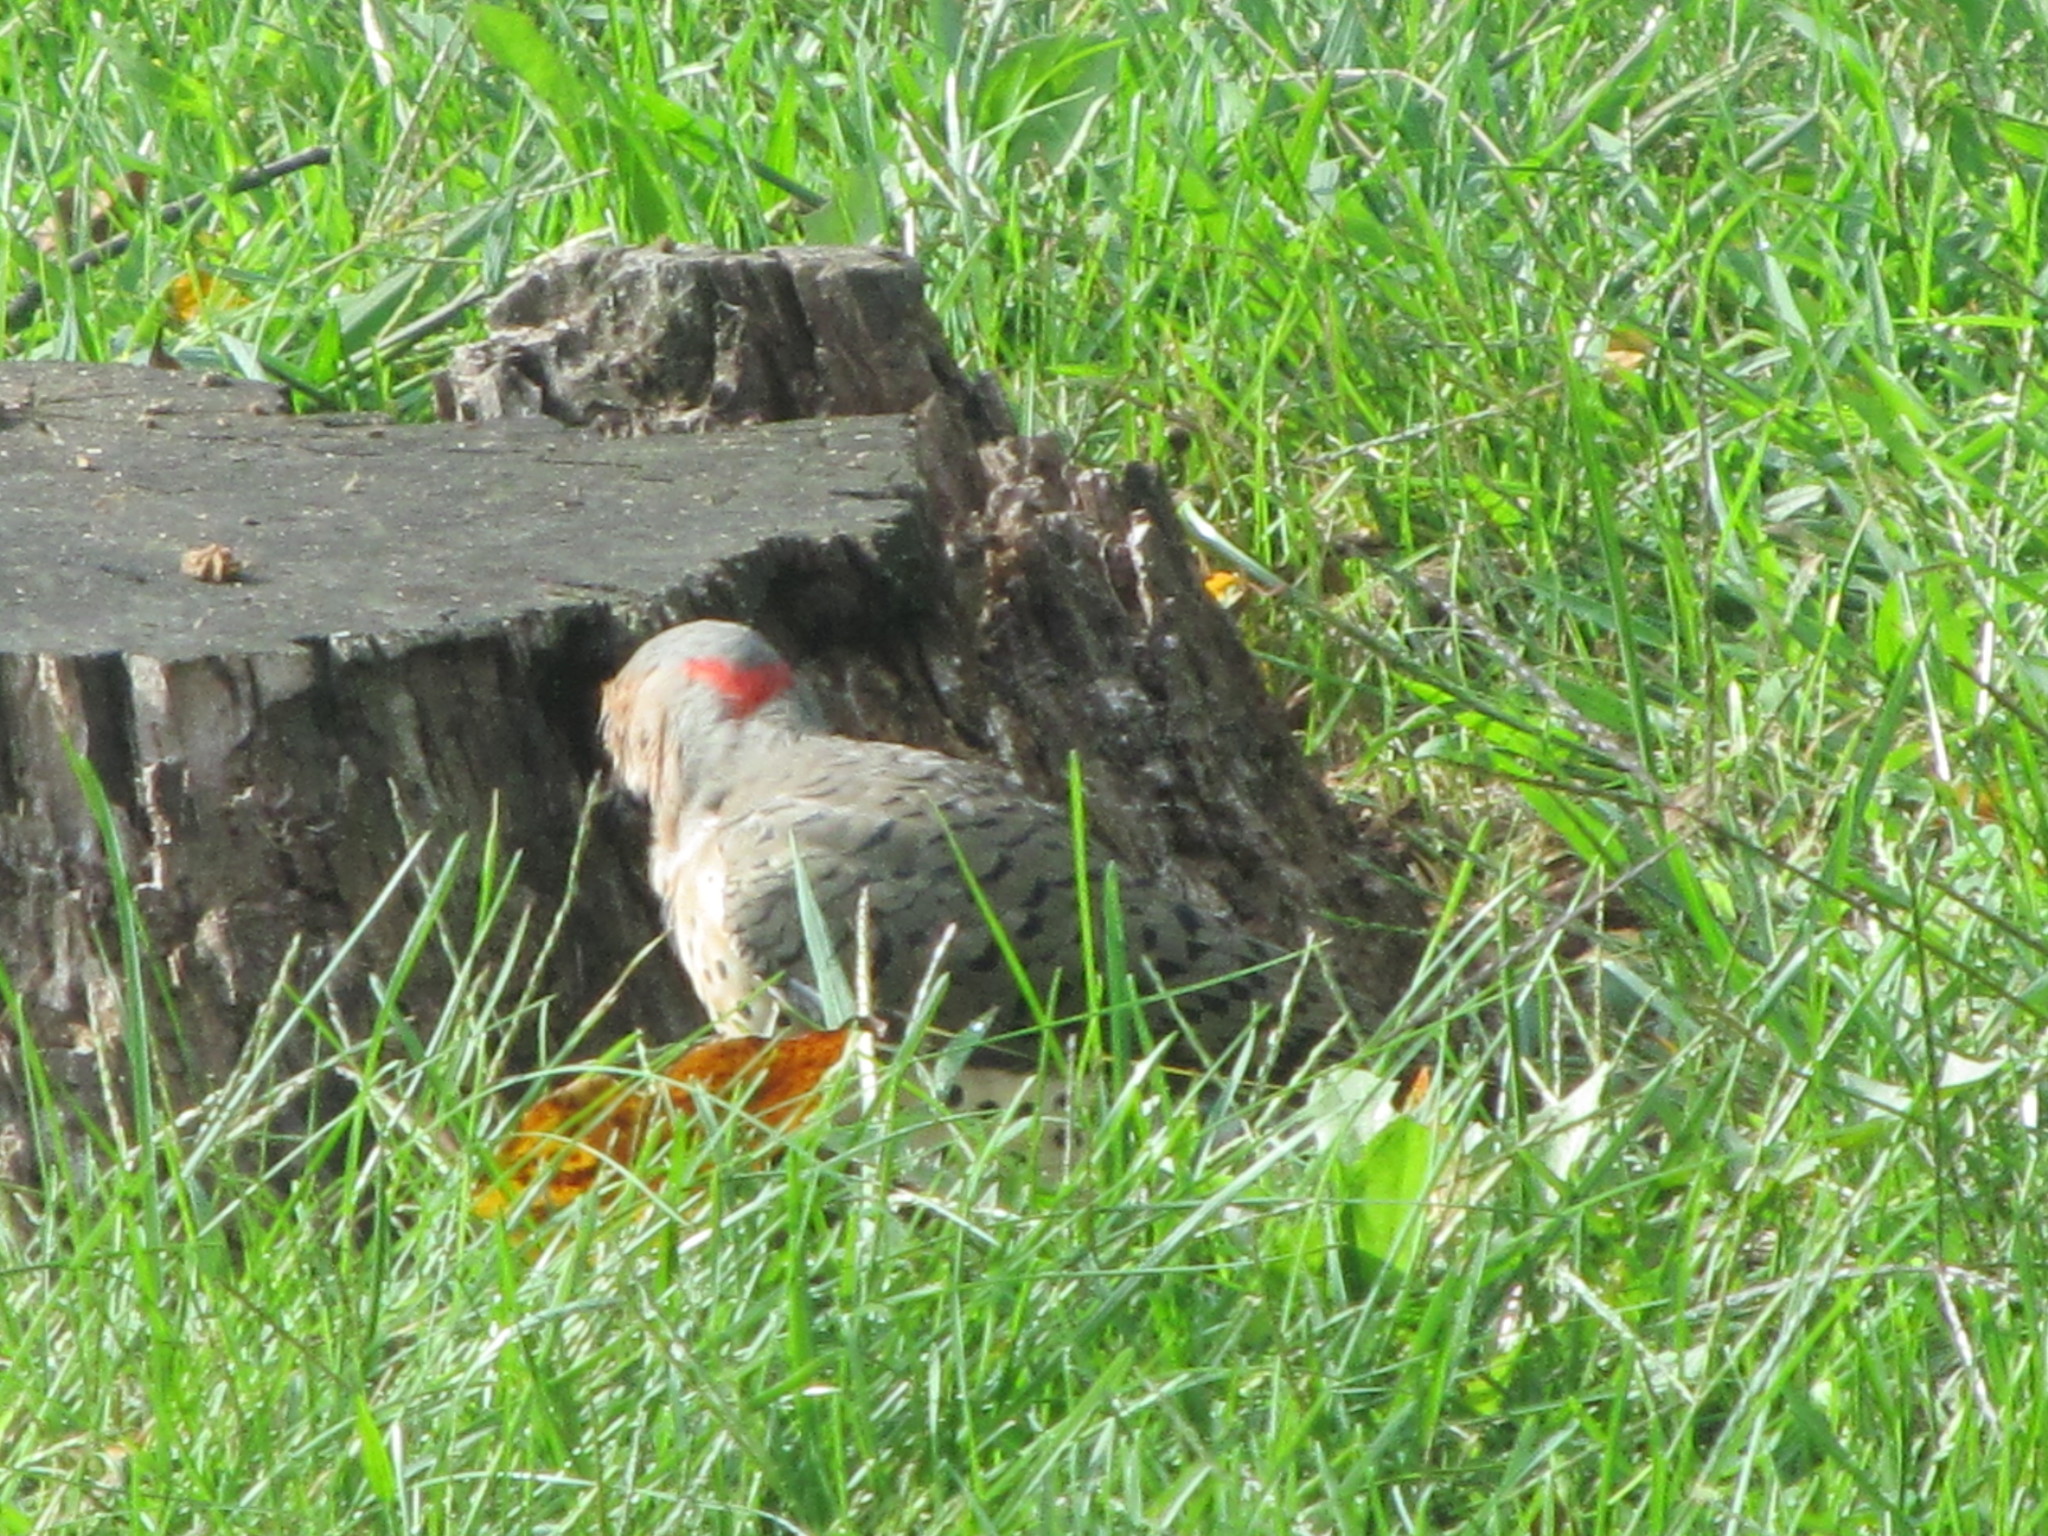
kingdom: Animalia
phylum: Chordata
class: Aves
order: Piciformes
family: Picidae
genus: Colaptes
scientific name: Colaptes auratus
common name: Northern flicker
